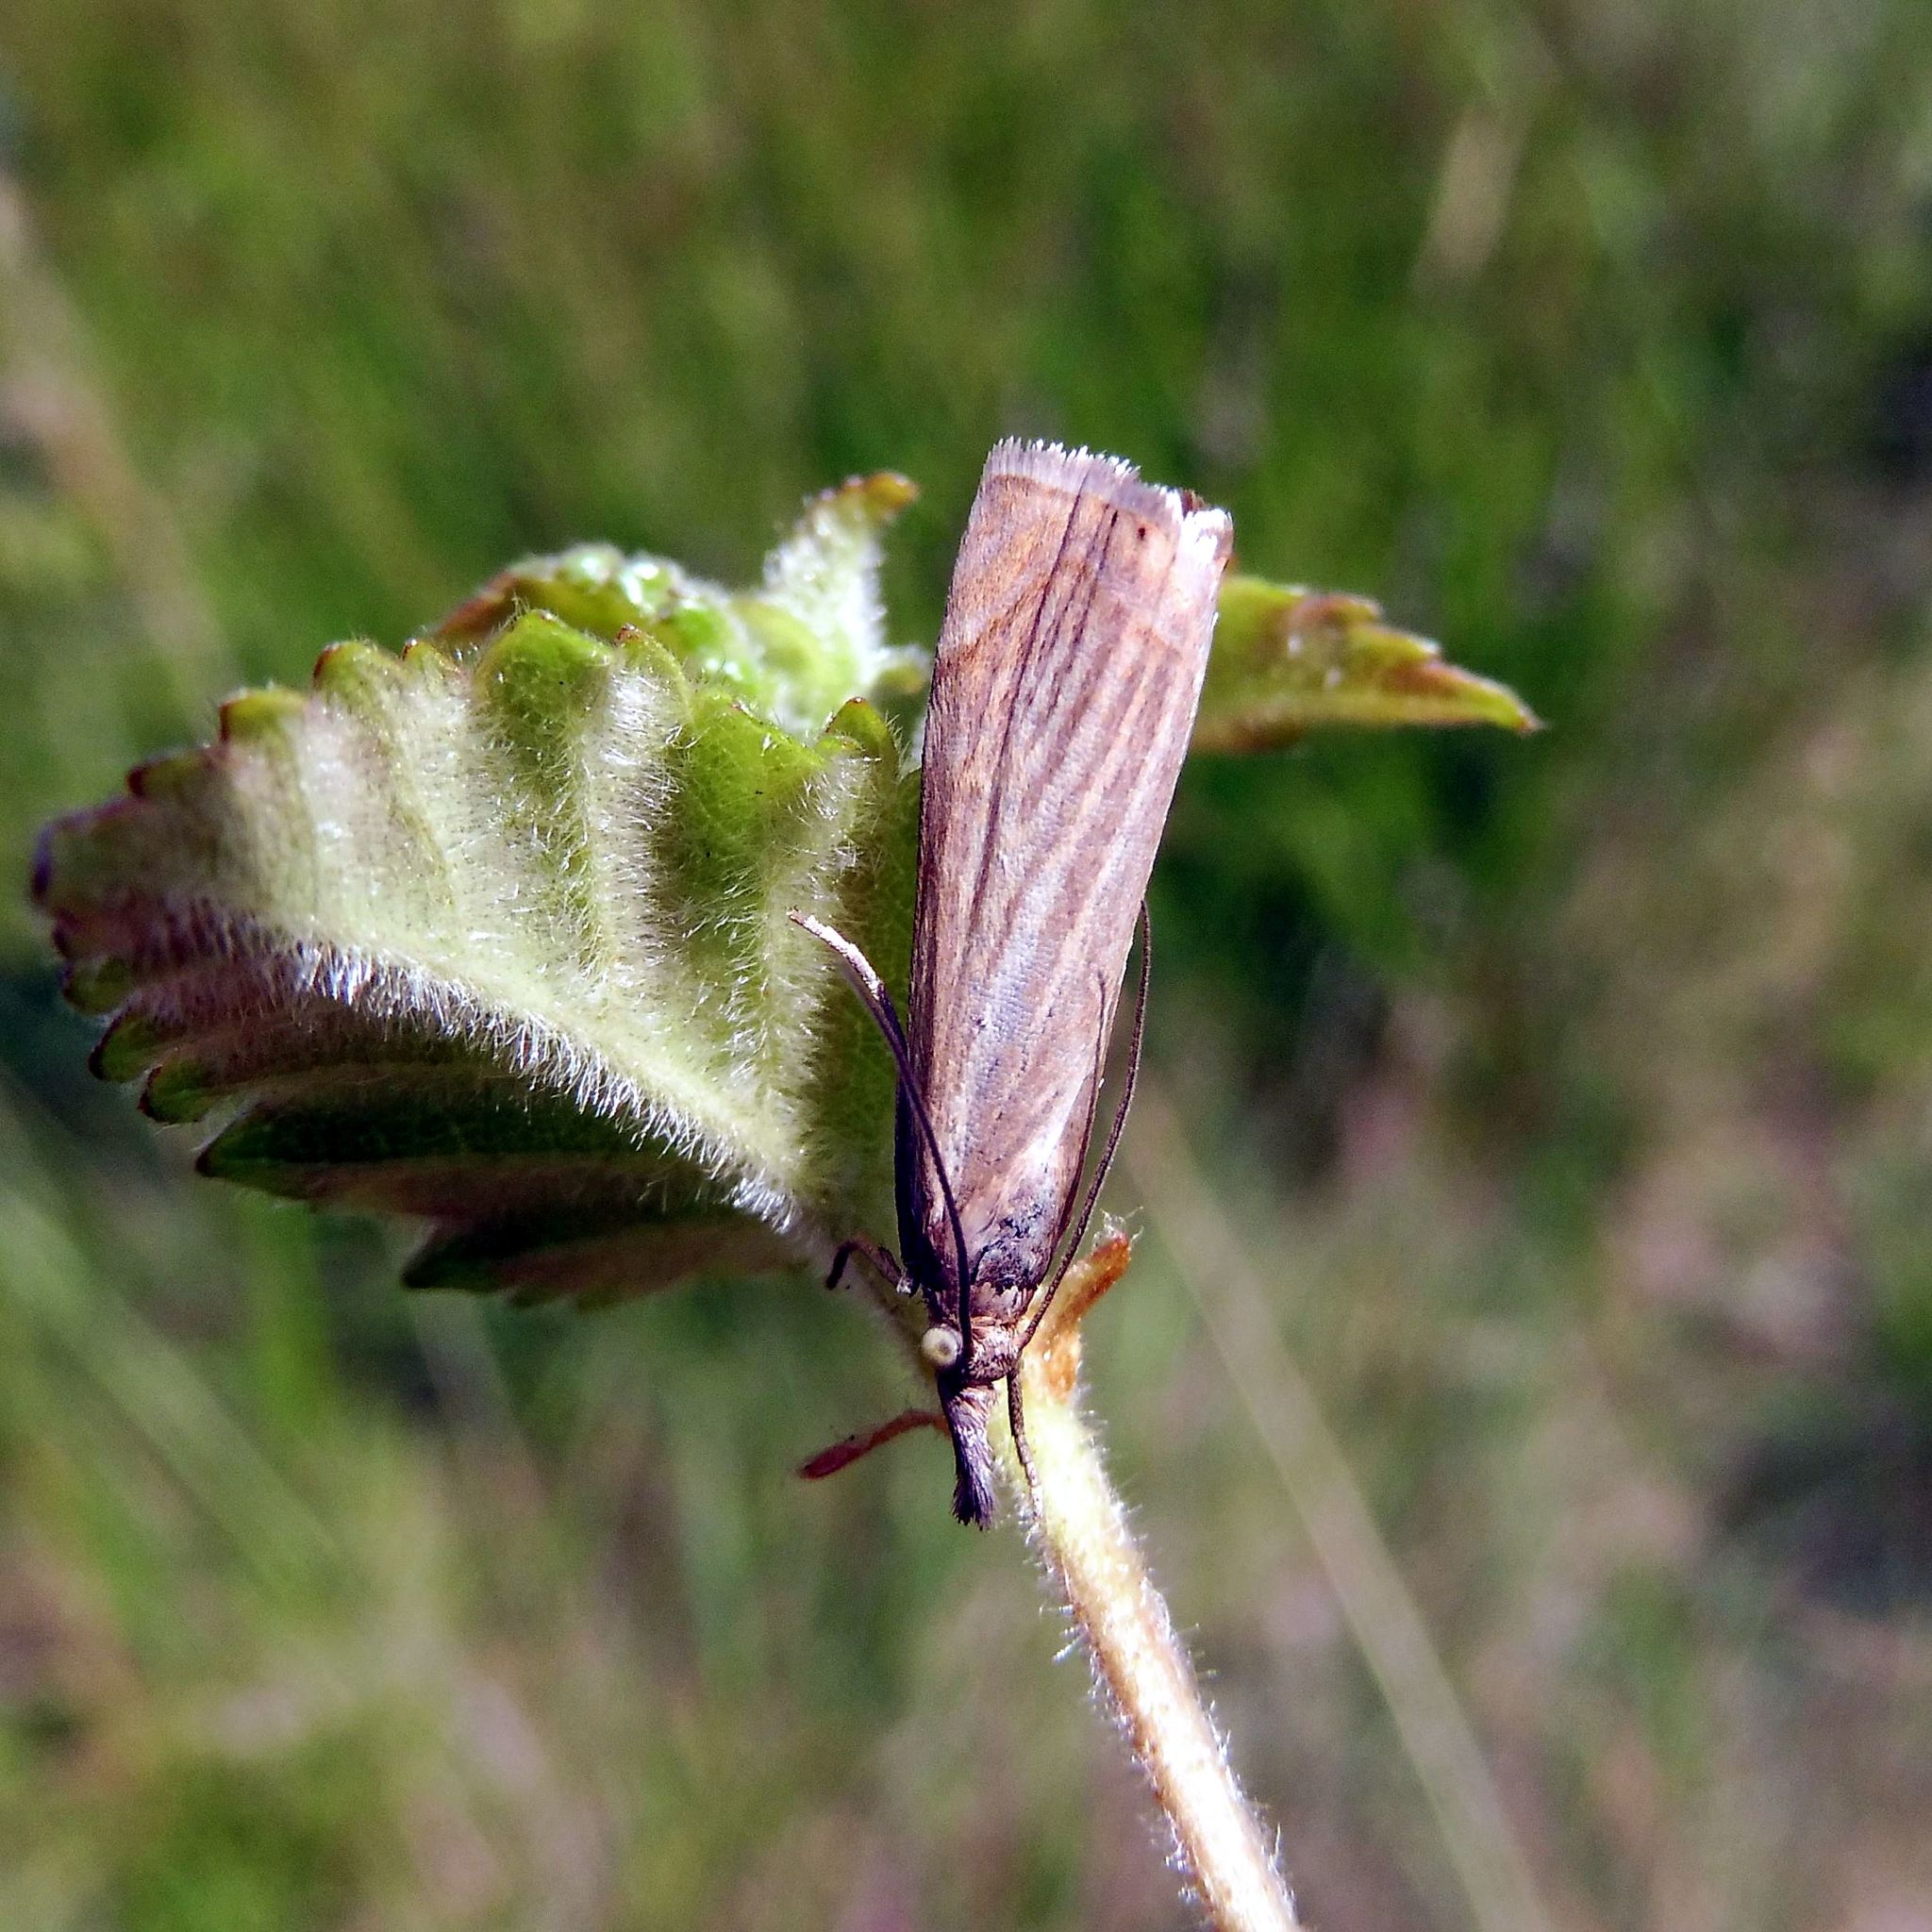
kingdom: Animalia
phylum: Arthropoda
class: Insecta
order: Lepidoptera
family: Crambidae
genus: Chrysoteuchia
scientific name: Chrysoteuchia culmella
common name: Garden grass-veneer
